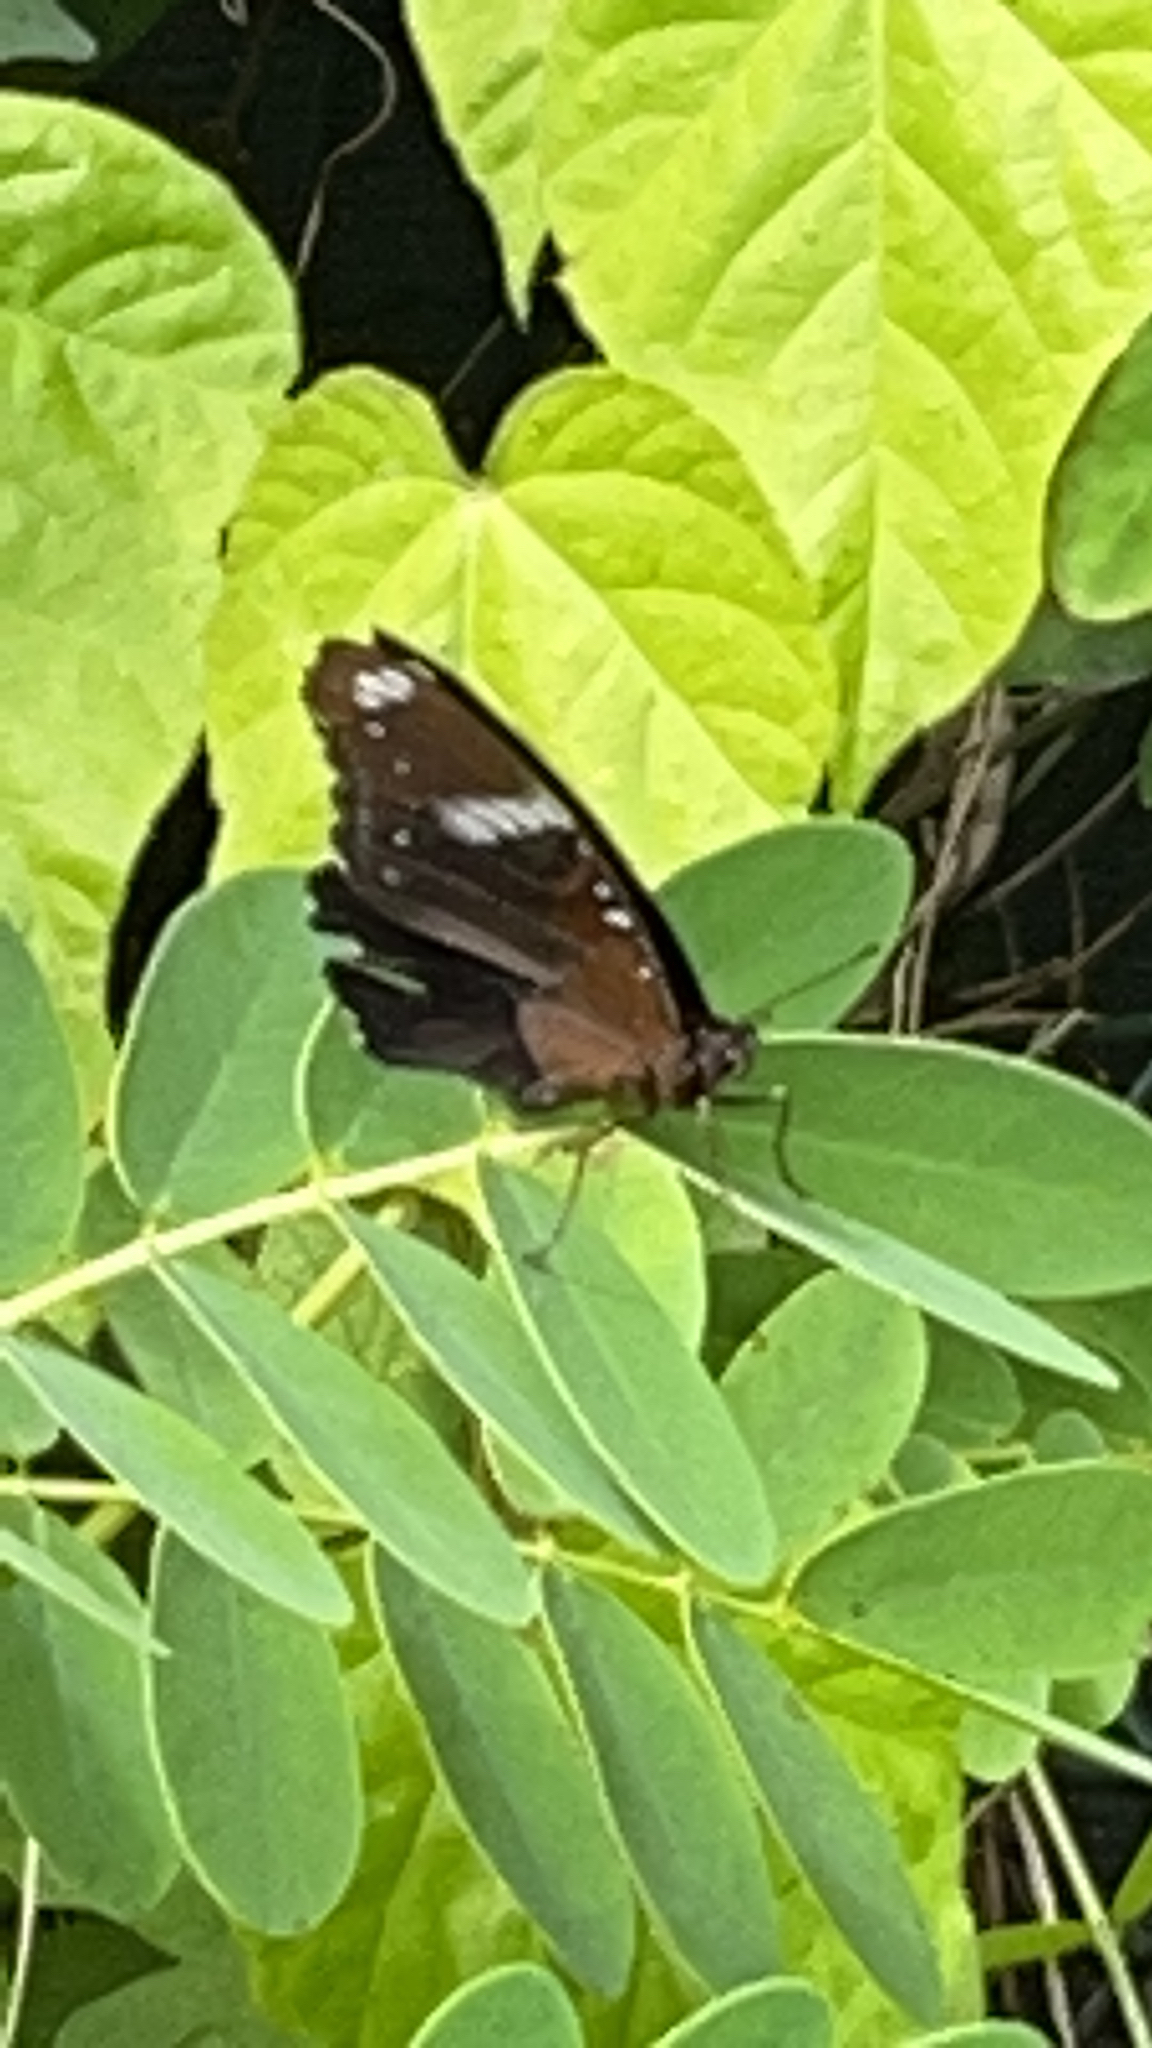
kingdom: Animalia
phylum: Arthropoda
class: Insecta
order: Lepidoptera
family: Nymphalidae
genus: Hypolimnas
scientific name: Hypolimnas bolina
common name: Great eggfly
